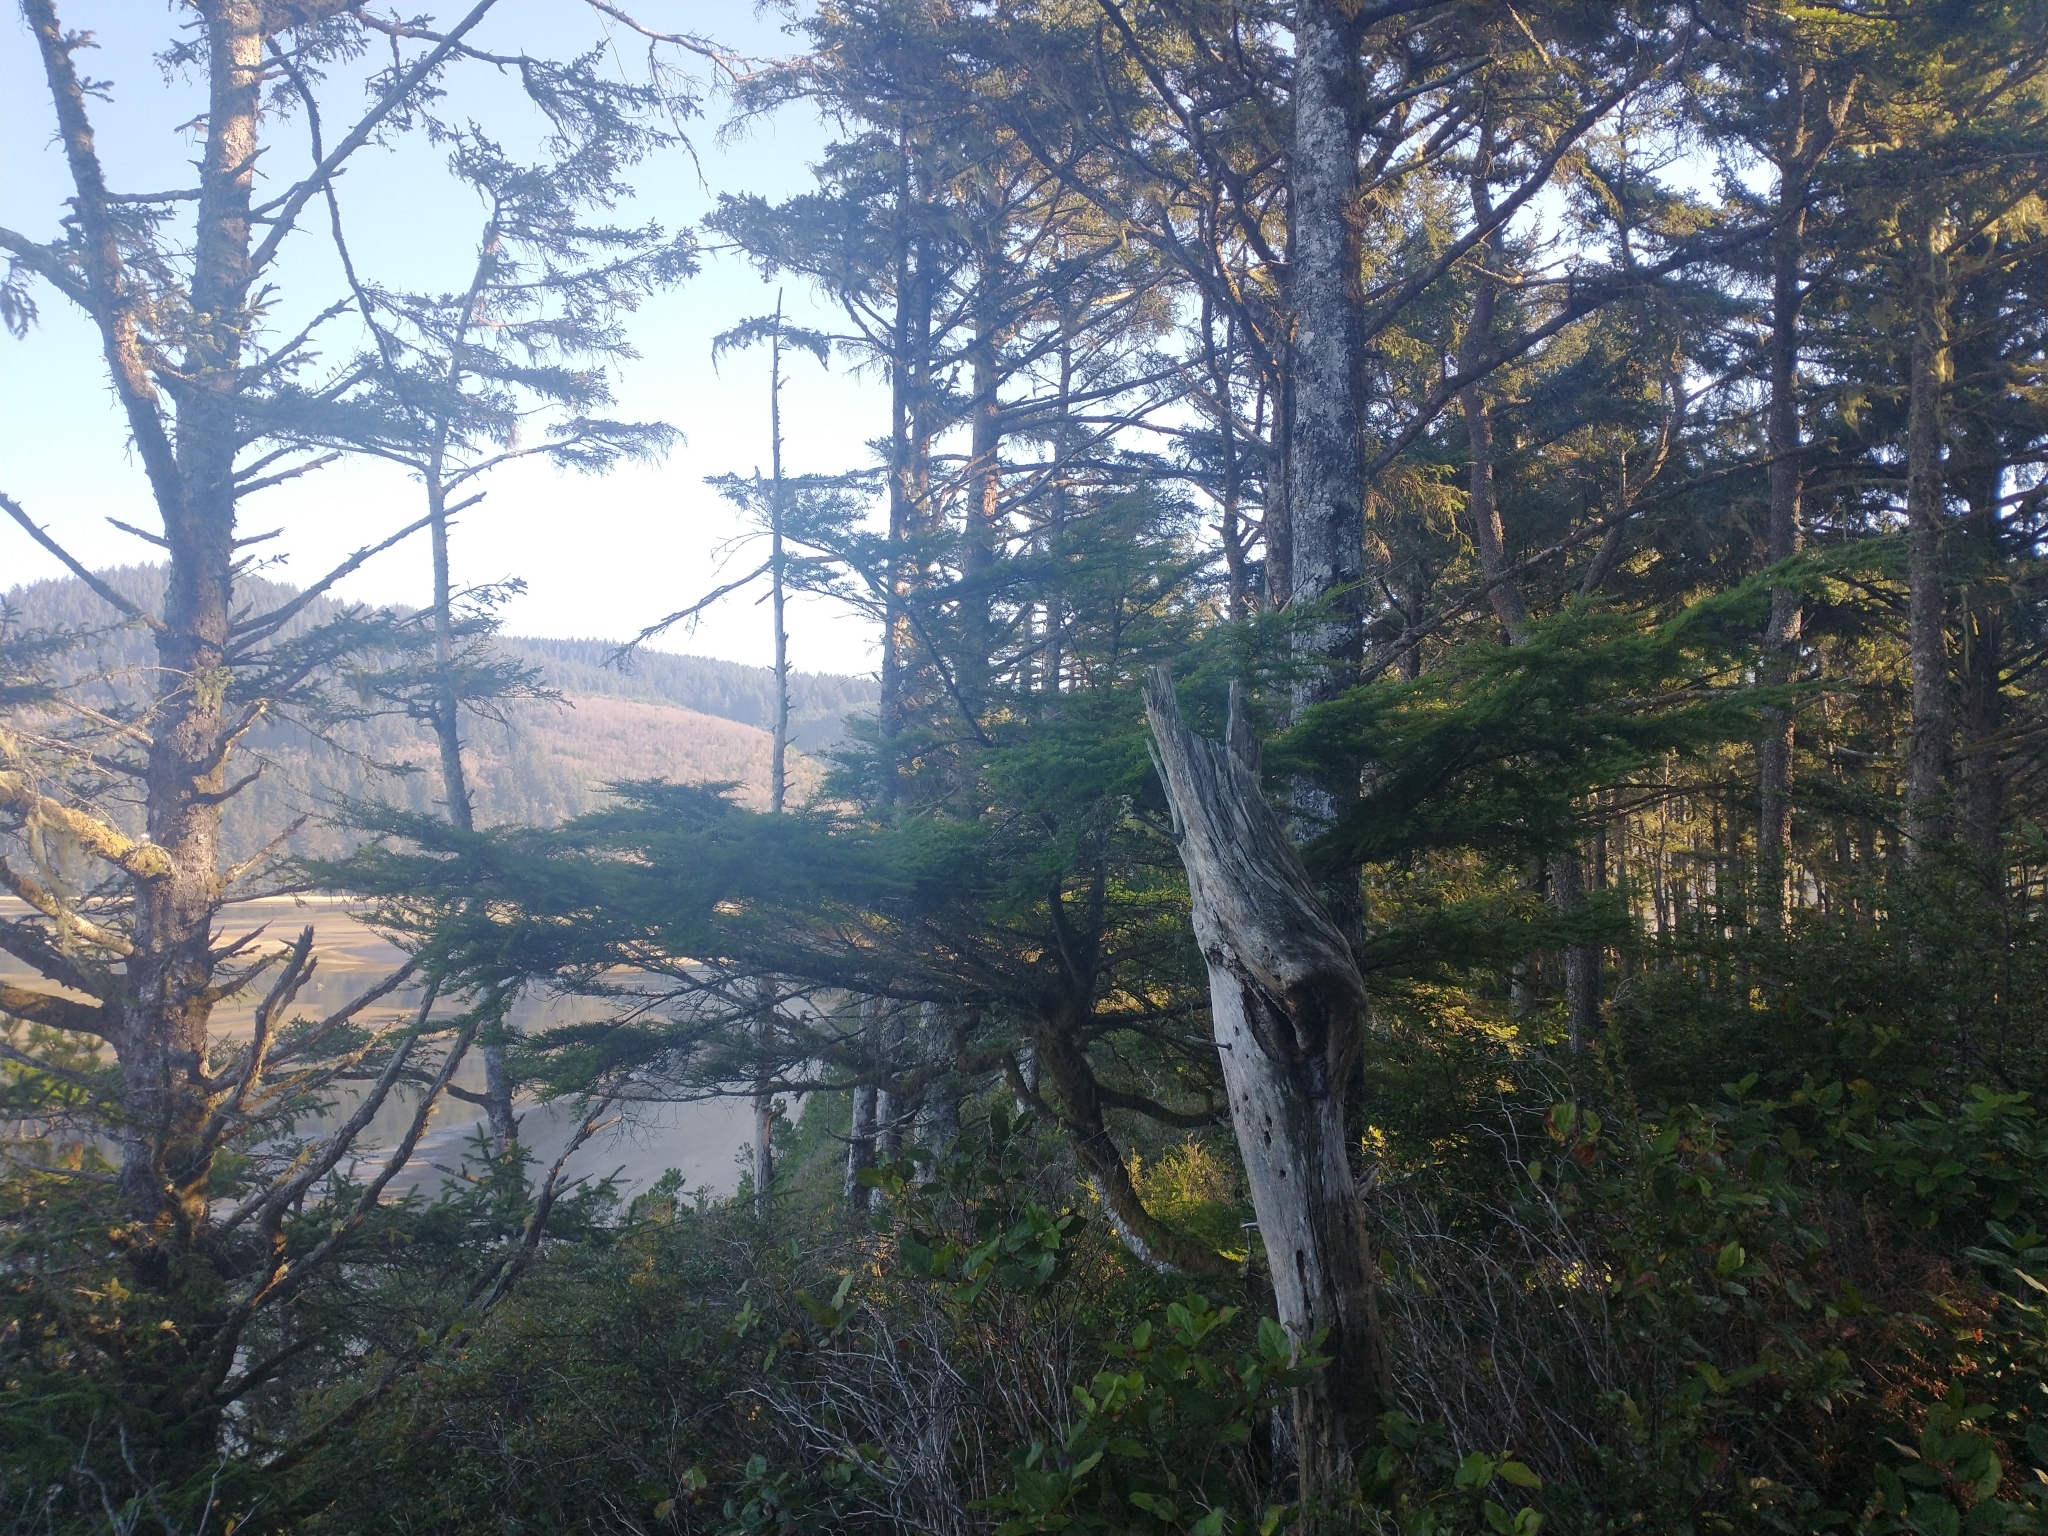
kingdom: Plantae
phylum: Tracheophyta
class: Pinopsida
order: Pinales
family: Pinaceae
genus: Tsuga
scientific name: Tsuga heterophylla
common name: Western hemlock
